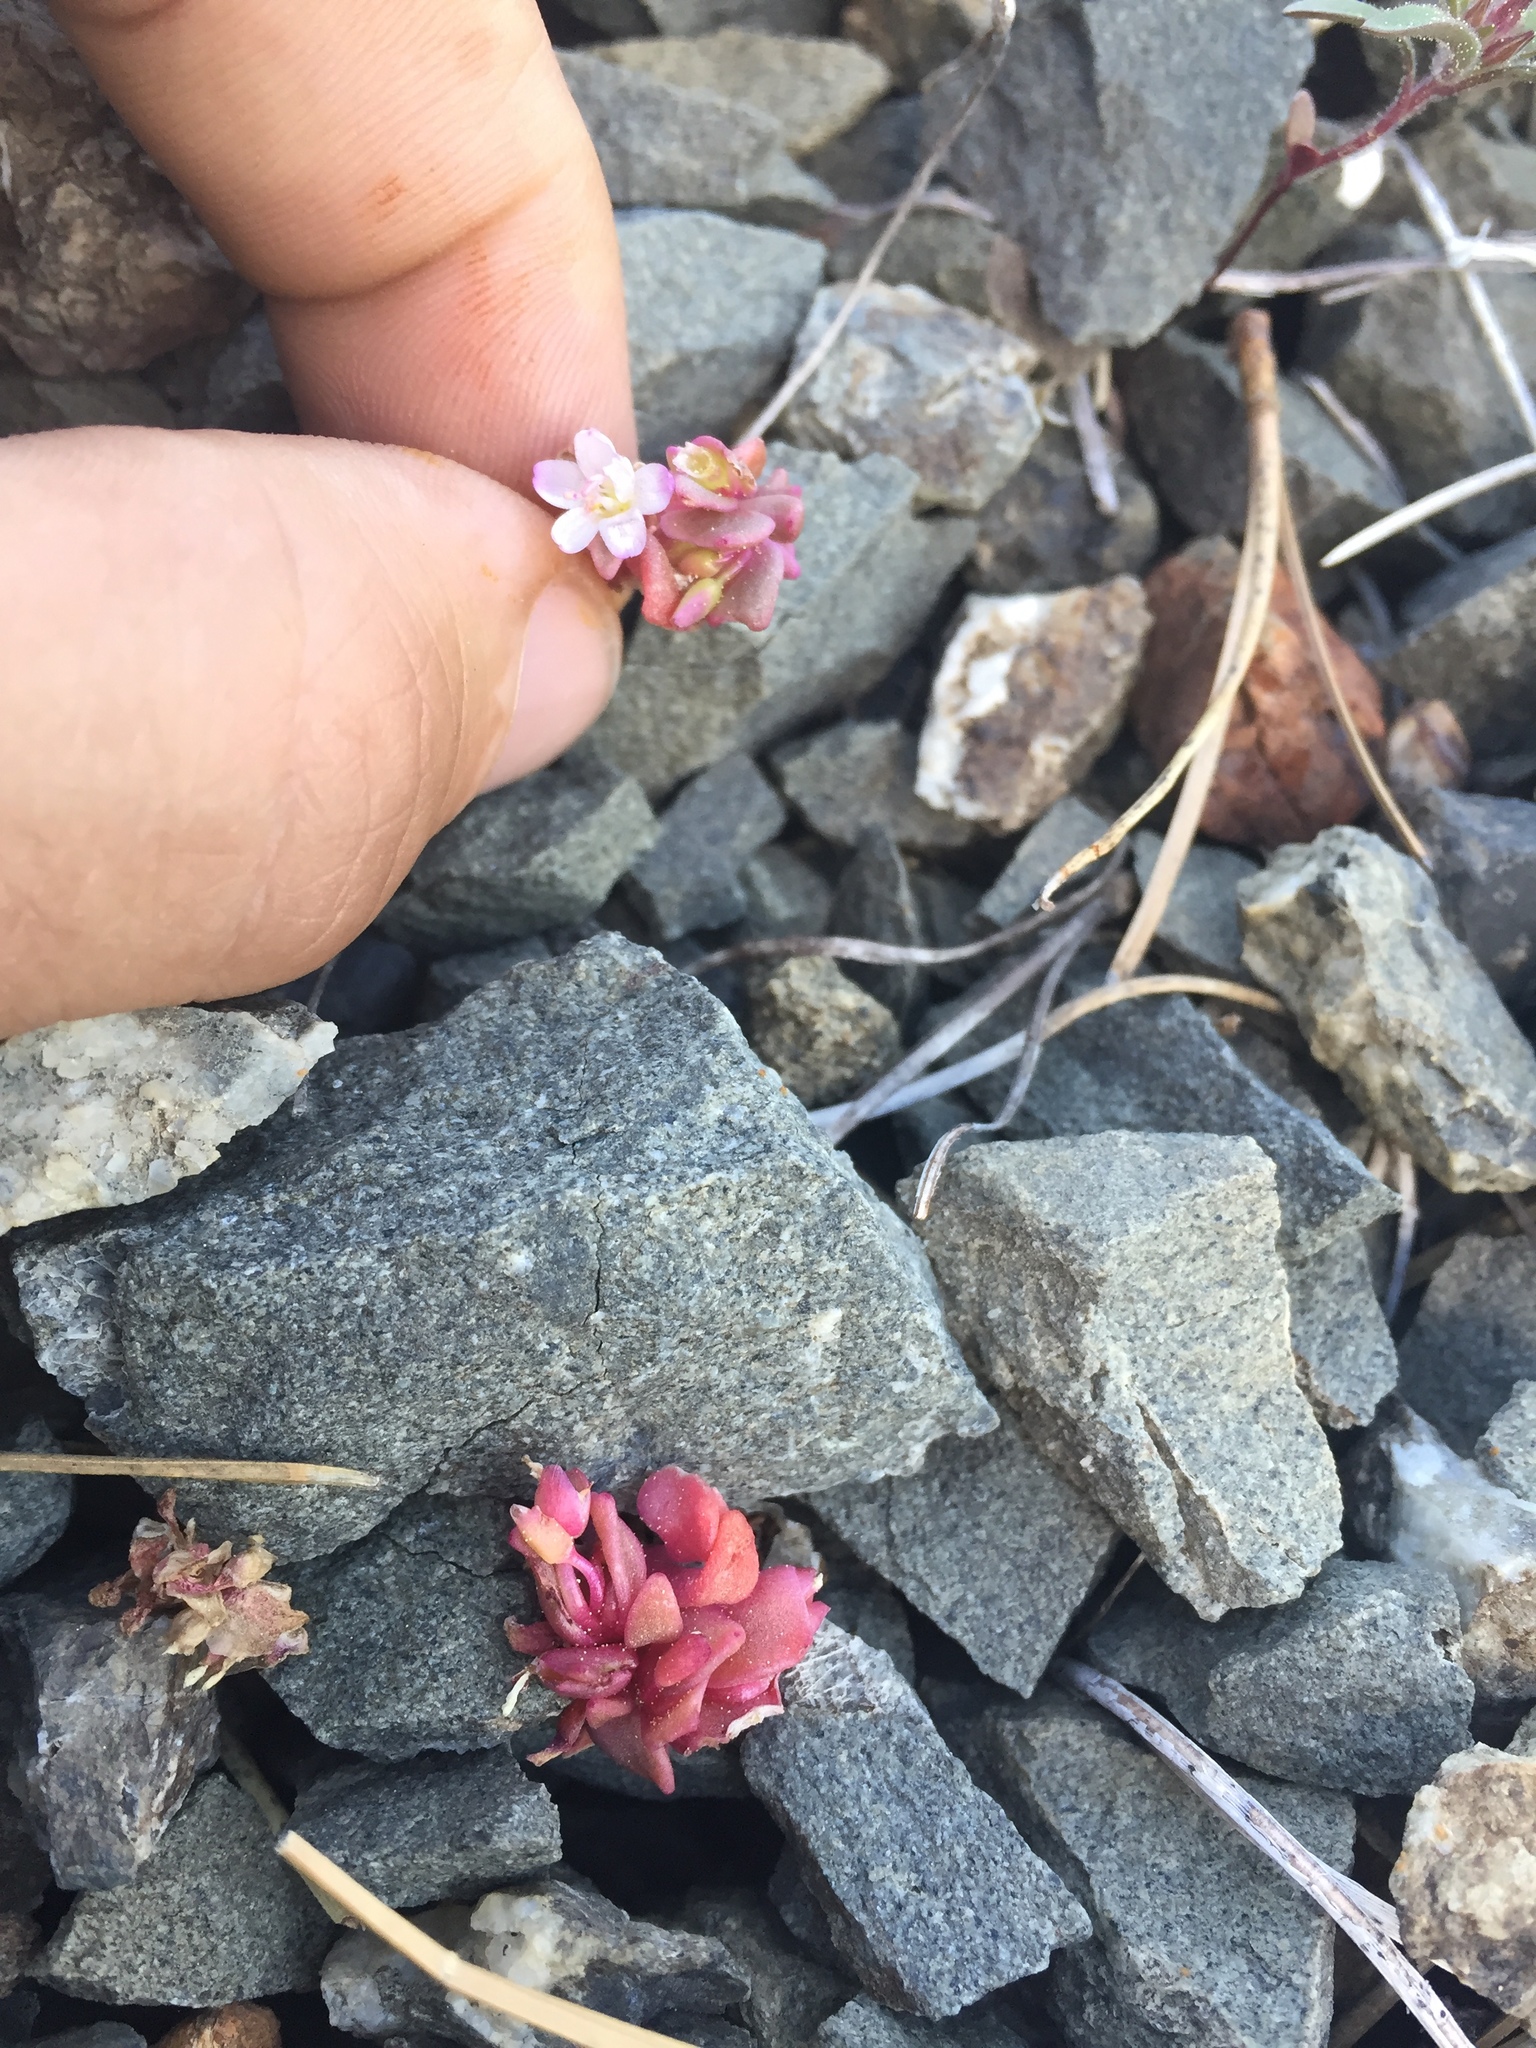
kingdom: Plantae
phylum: Tracheophyta
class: Magnoliopsida
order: Caryophyllales
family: Montiaceae
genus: Claytonia
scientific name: Claytonia saxosa
